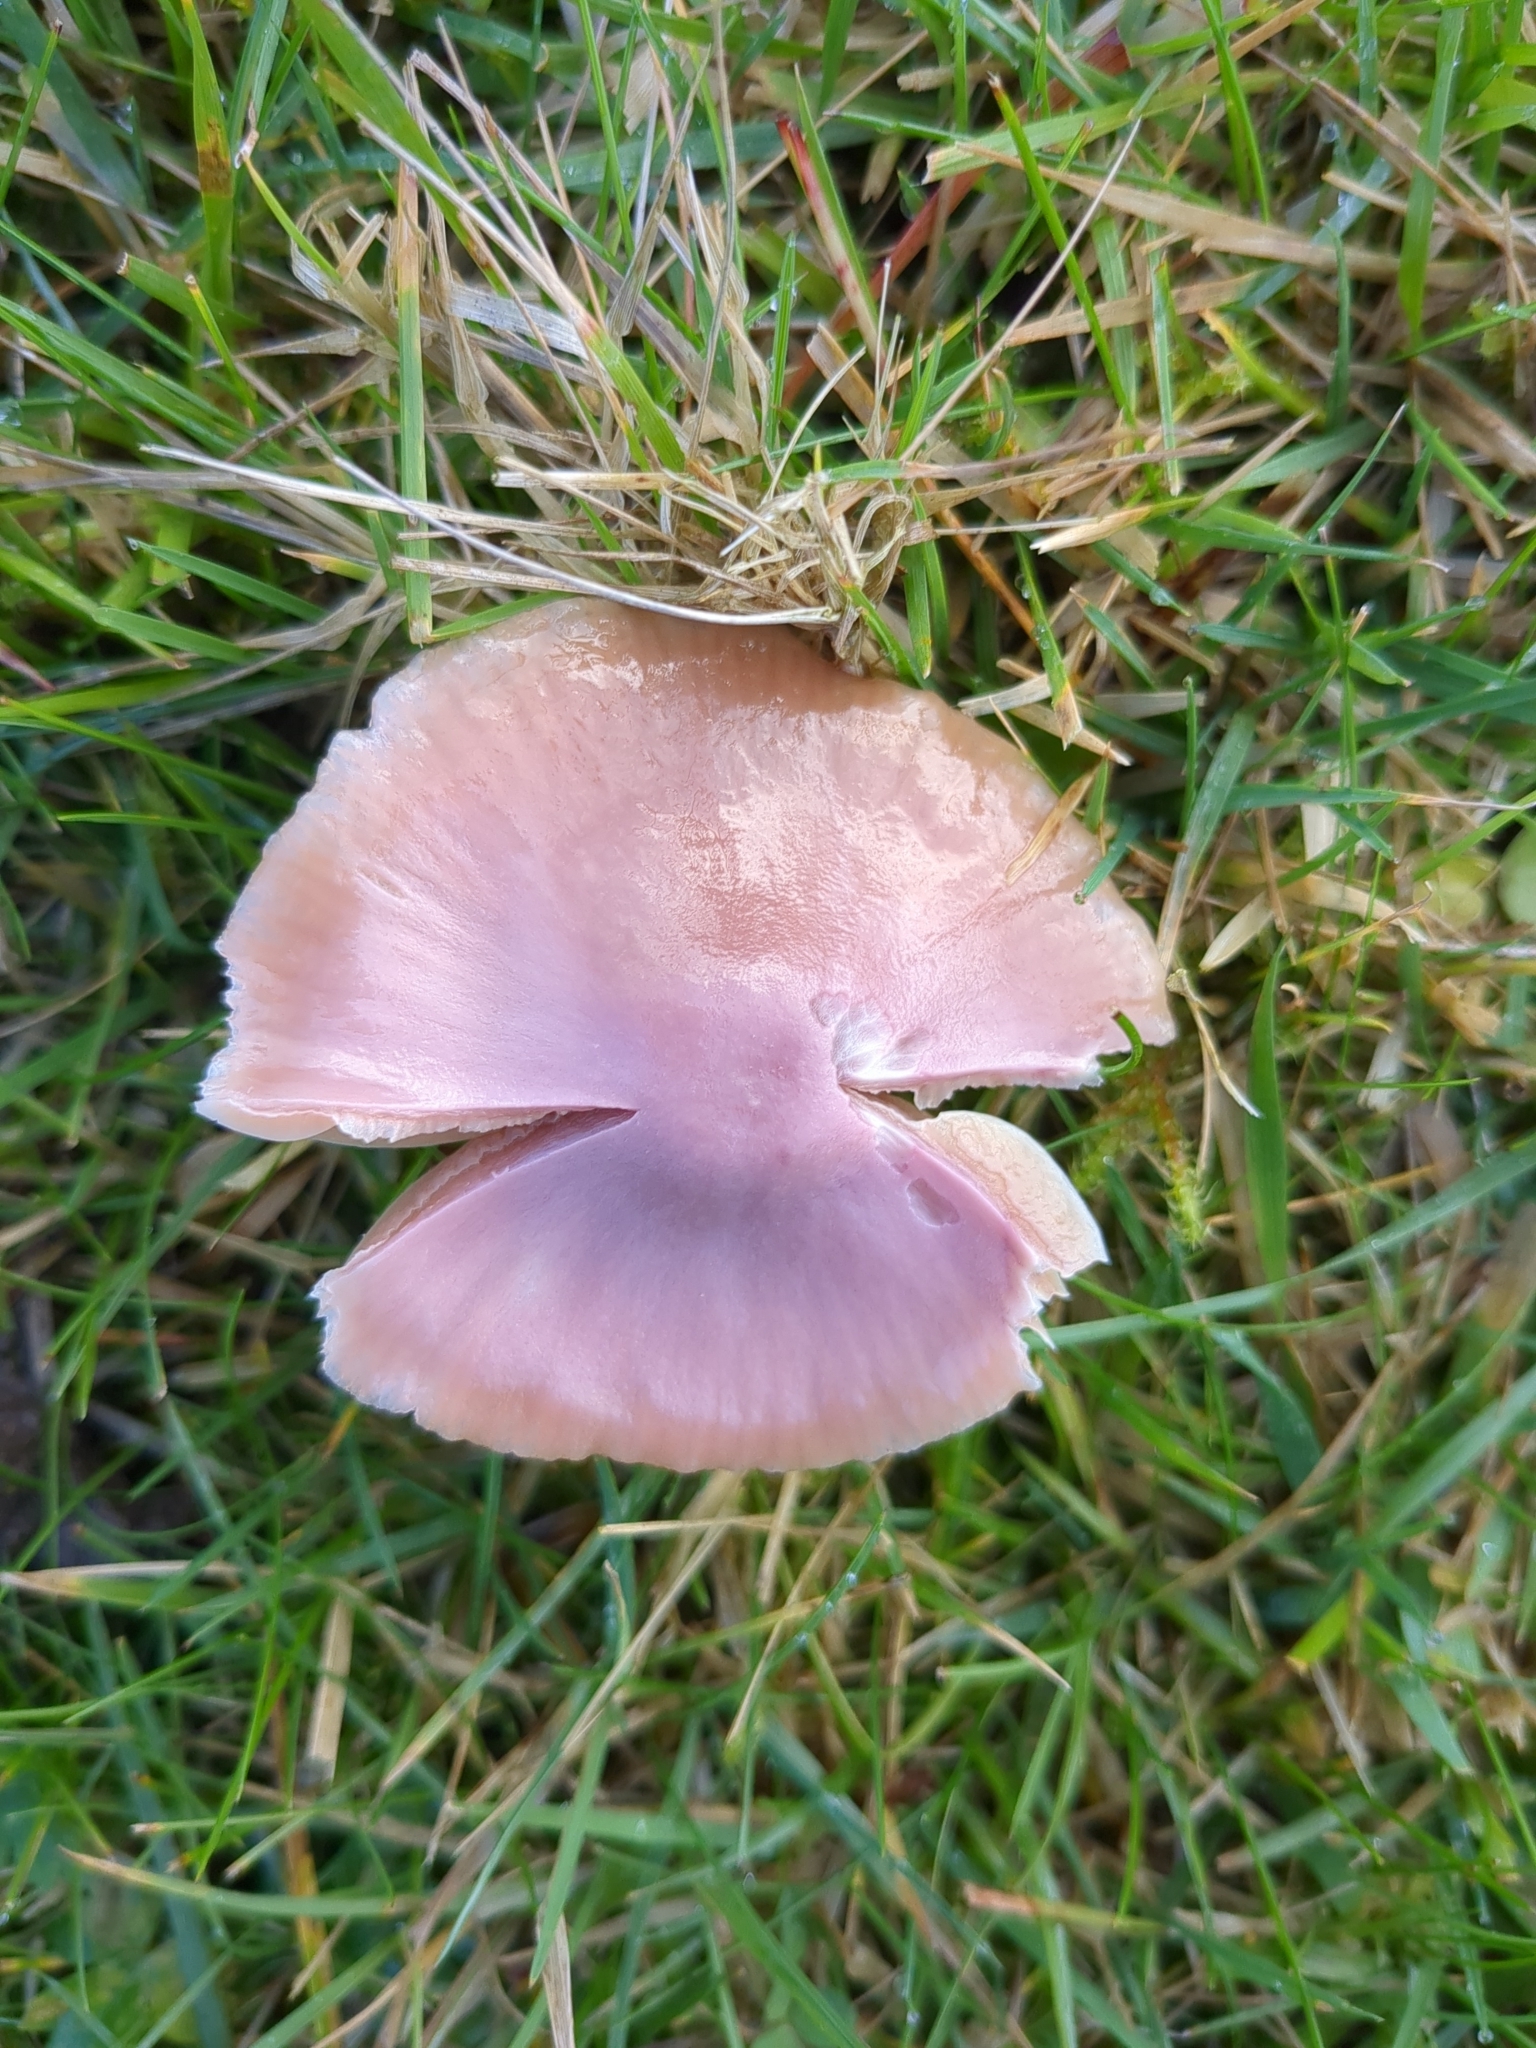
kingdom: Fungi
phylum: Basidiomycota
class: Agaricomycetes
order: Agaricales
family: Hygrophoraceae
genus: Gliophorus
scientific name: Gliophorus reginae
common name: Jubilee waxcap
